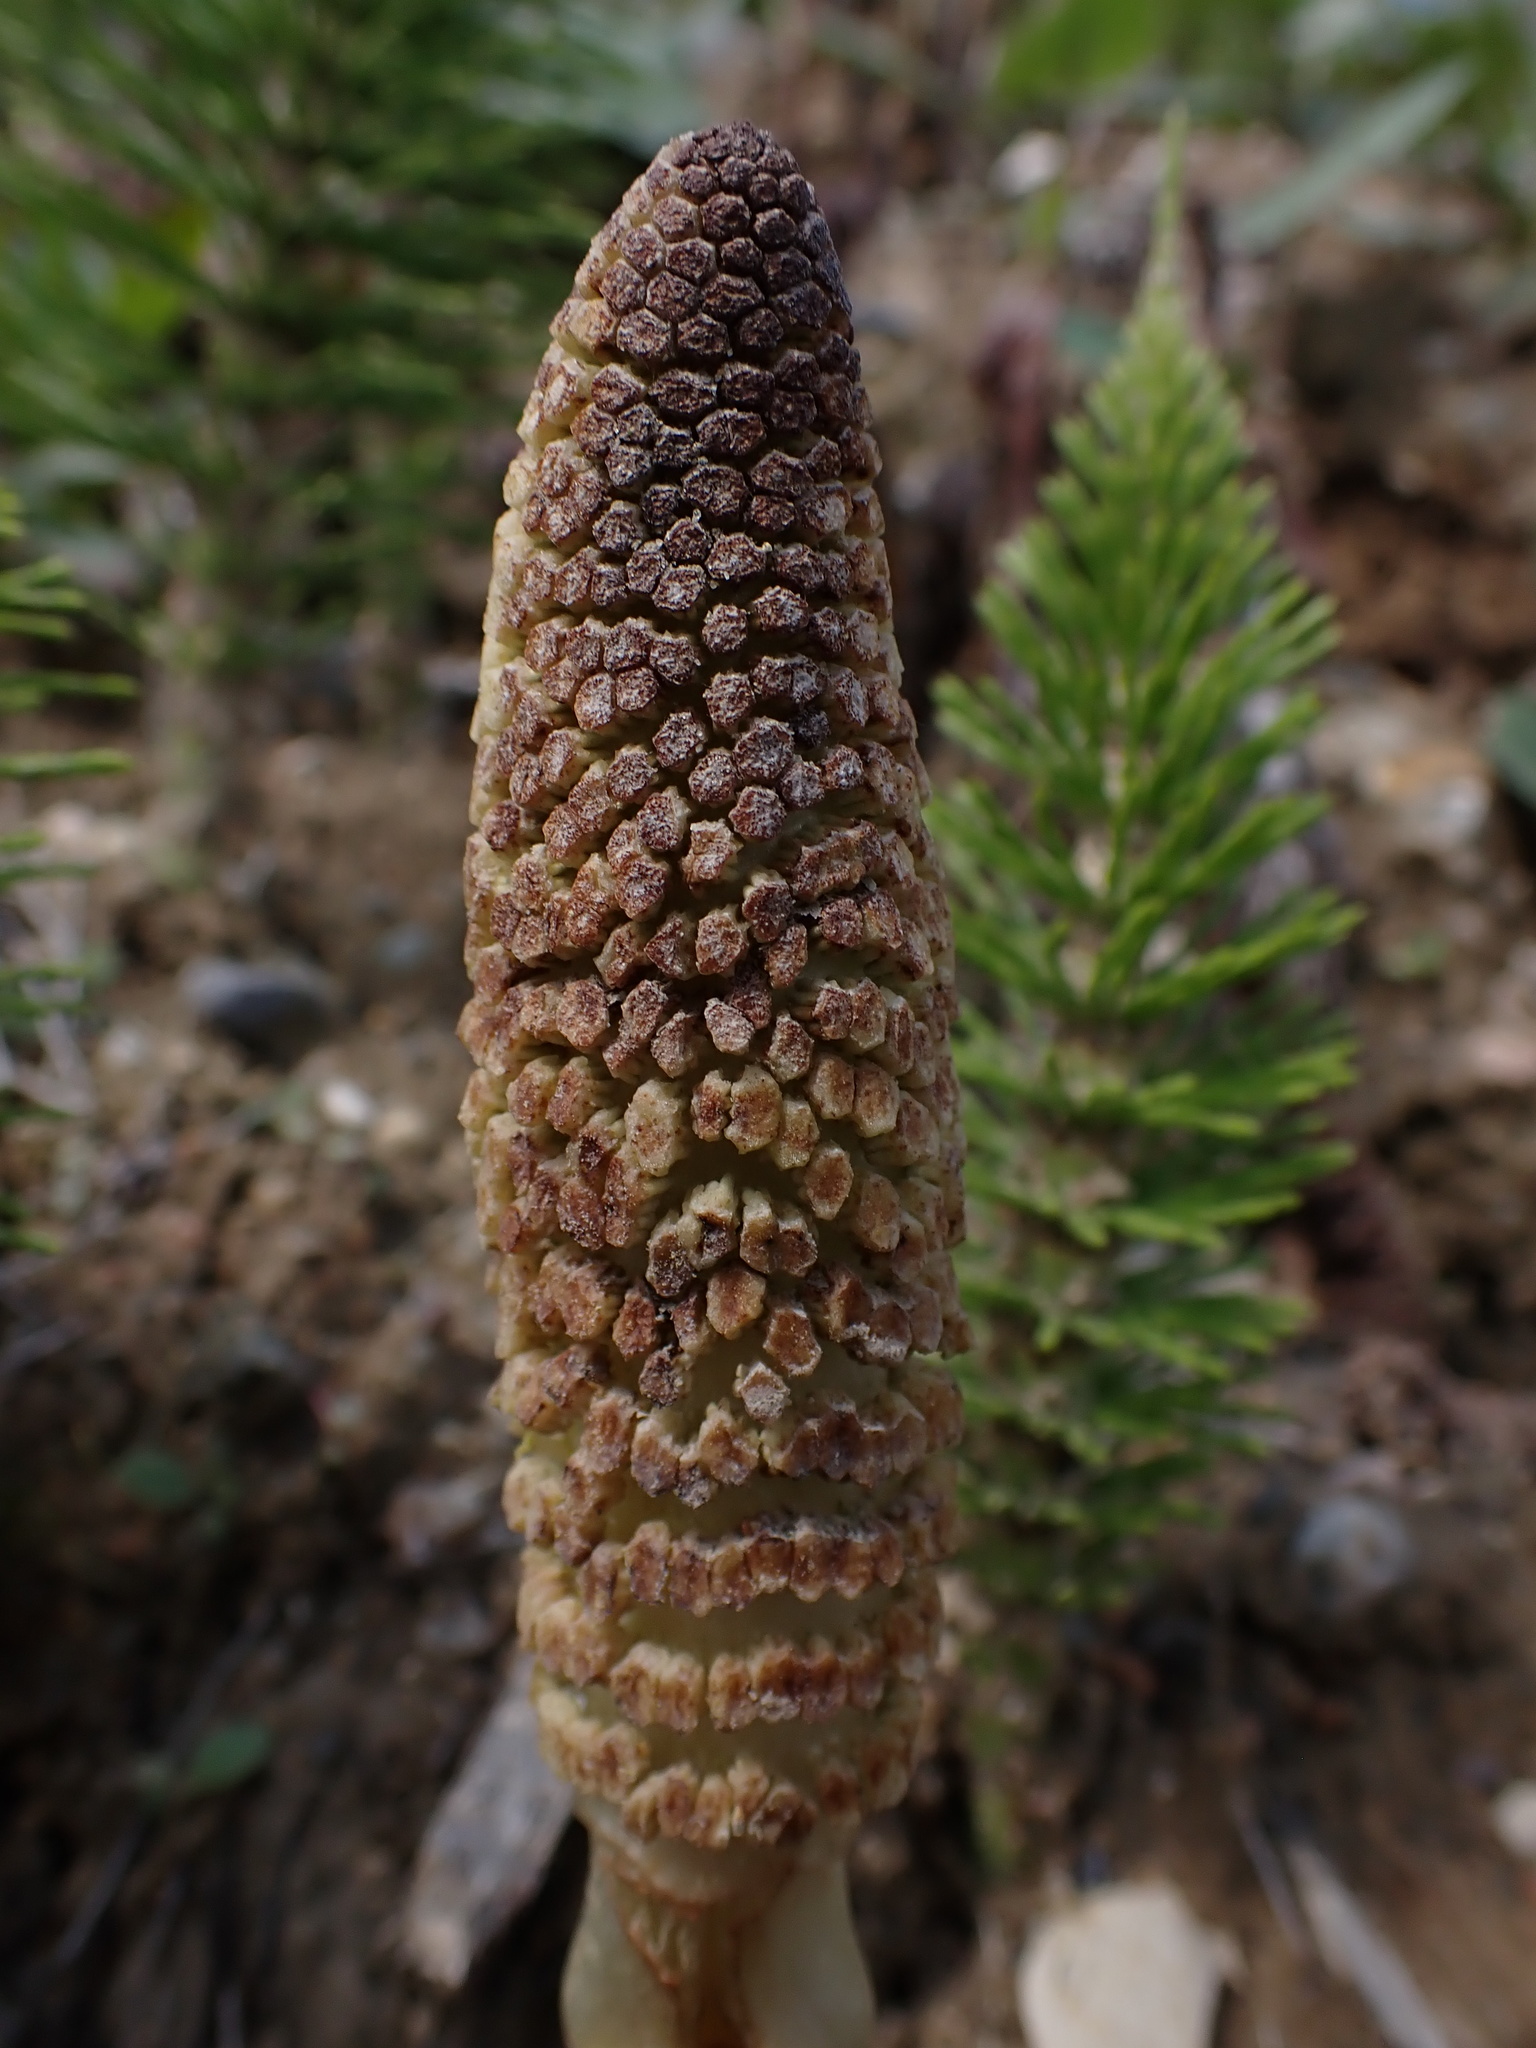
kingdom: Plantae
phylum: Tracheophyta
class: Polypodiopsida
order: Equisetales
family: Equisetaceae
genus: Equisetum
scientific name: Equisetum telmateia
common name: Great horsetail
